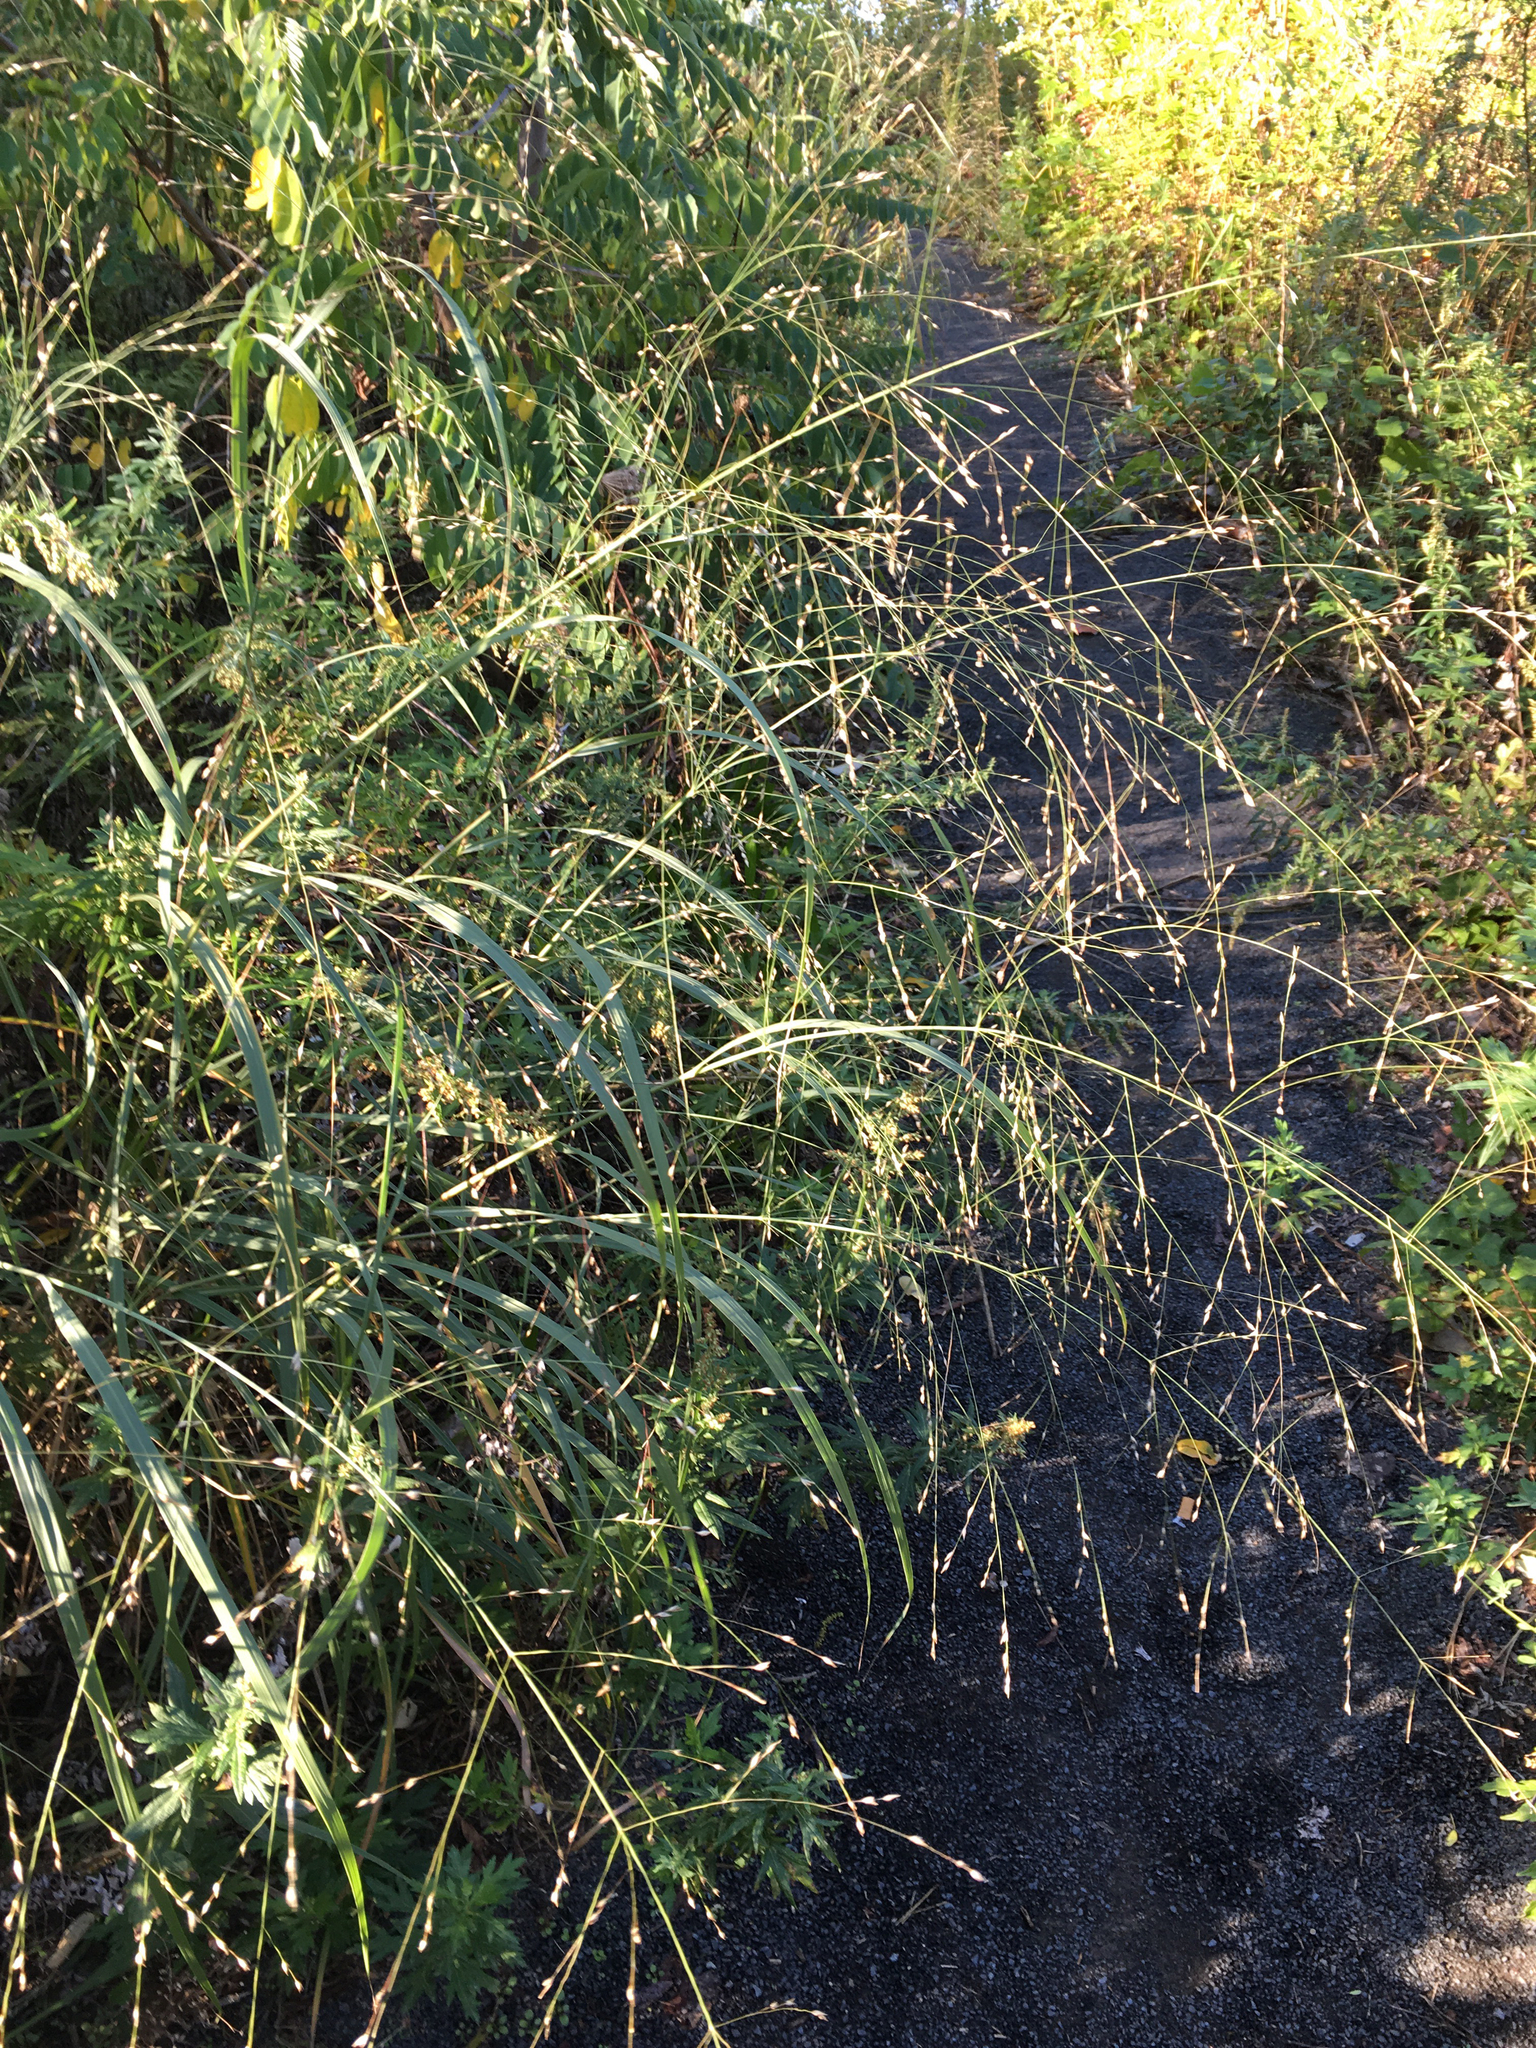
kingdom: Plantae
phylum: Tracheophyta
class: Liliopsida
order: Poales
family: Poaceae
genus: Panicum
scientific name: Panicum virgatum
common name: Switchgrass
